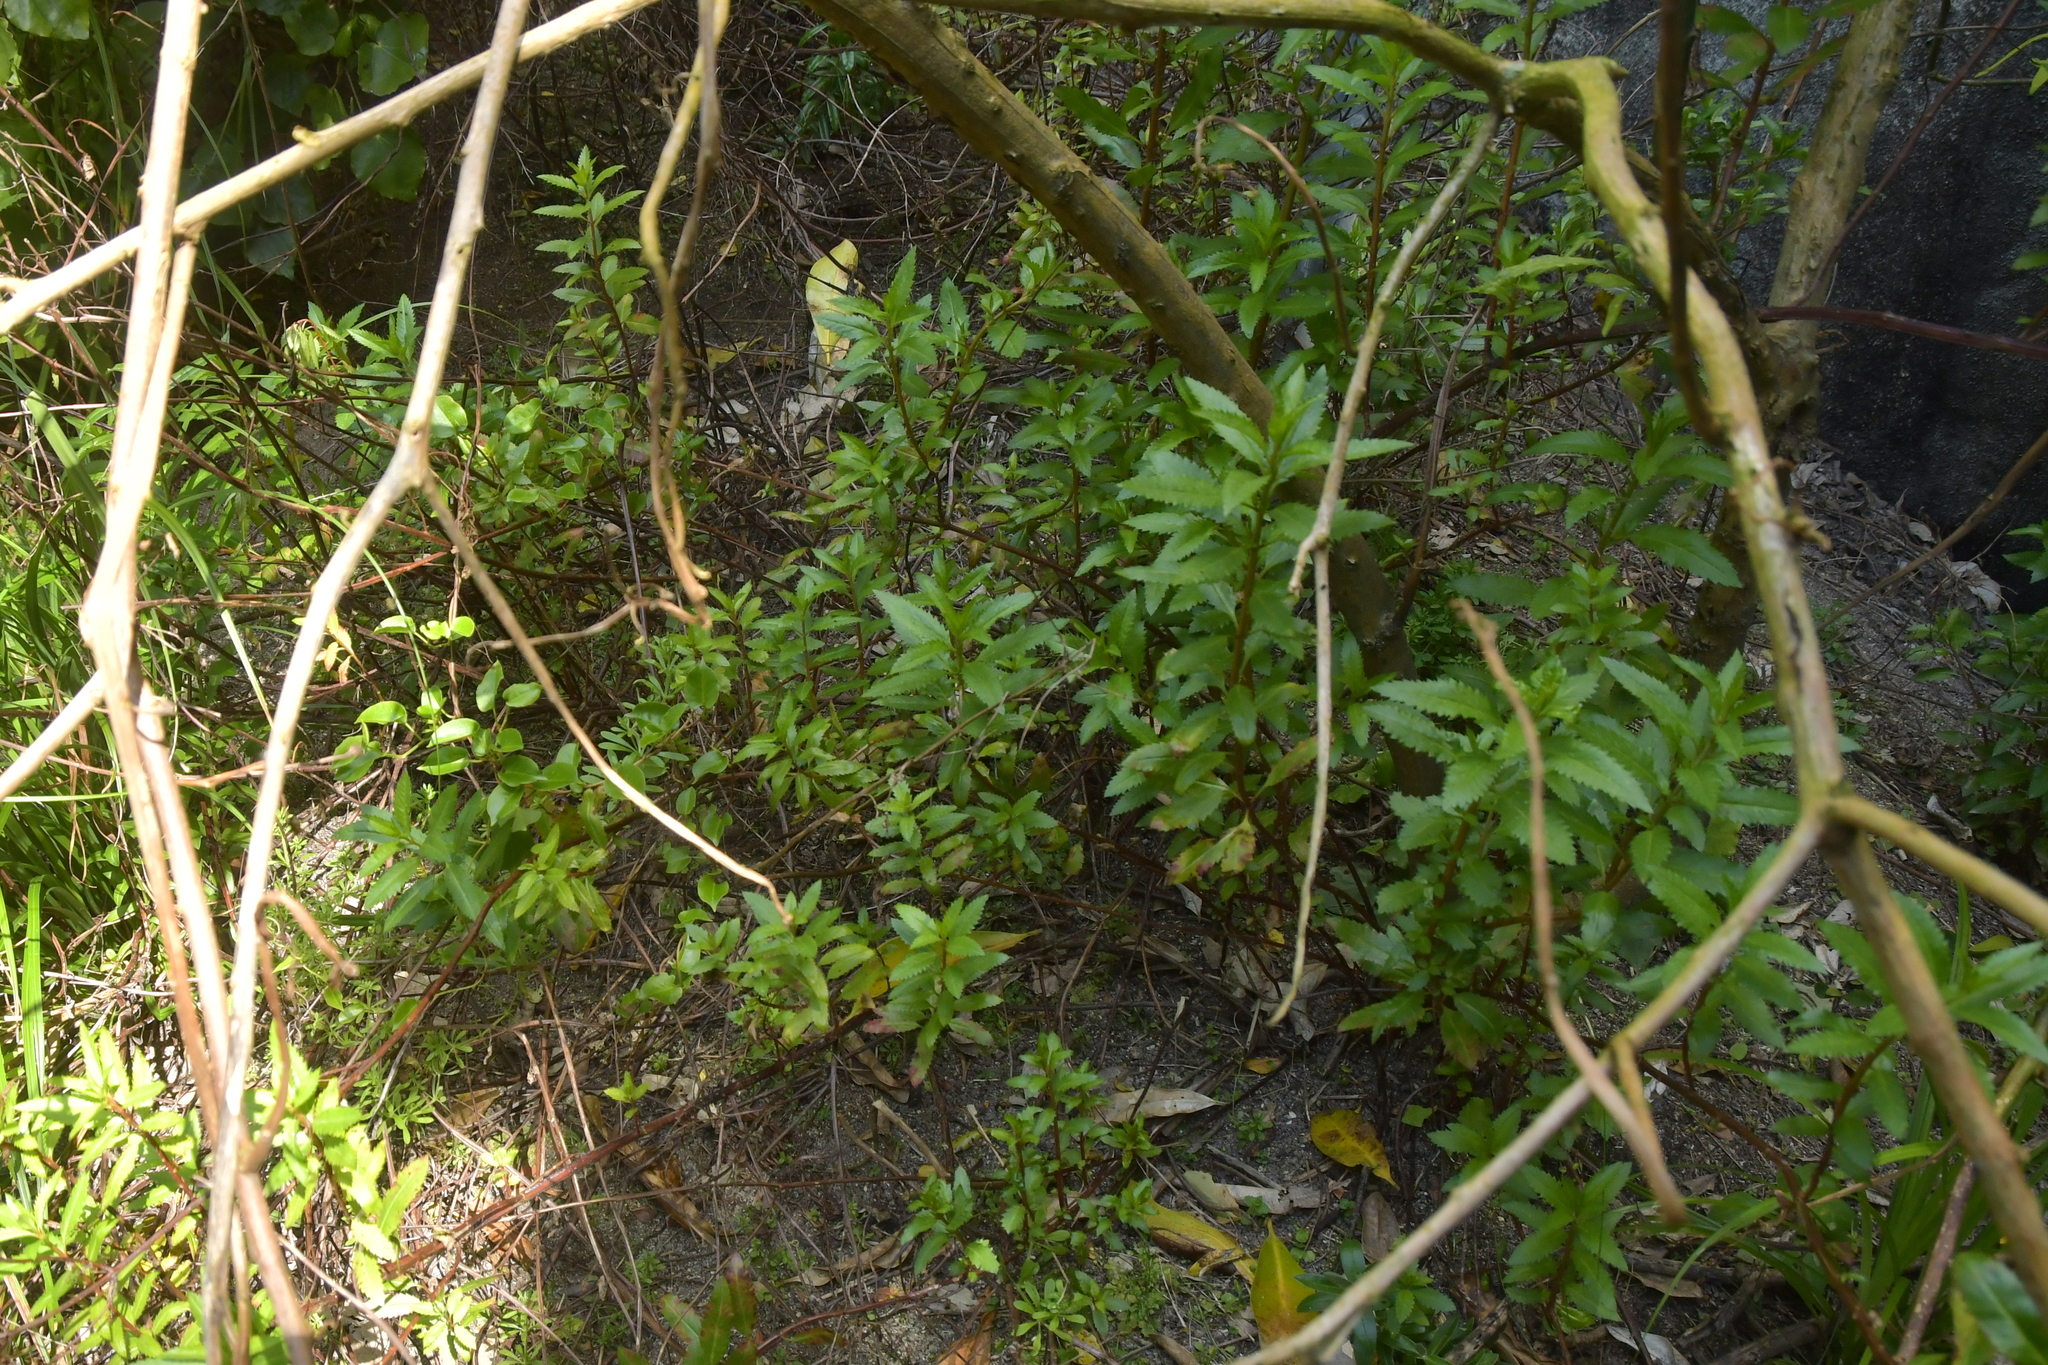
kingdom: Plantae
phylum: Tracheophyta
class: Magnoliopsida
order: Saxifragales
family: Haloragaceae
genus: Haloragis
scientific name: Haloragis erecta
